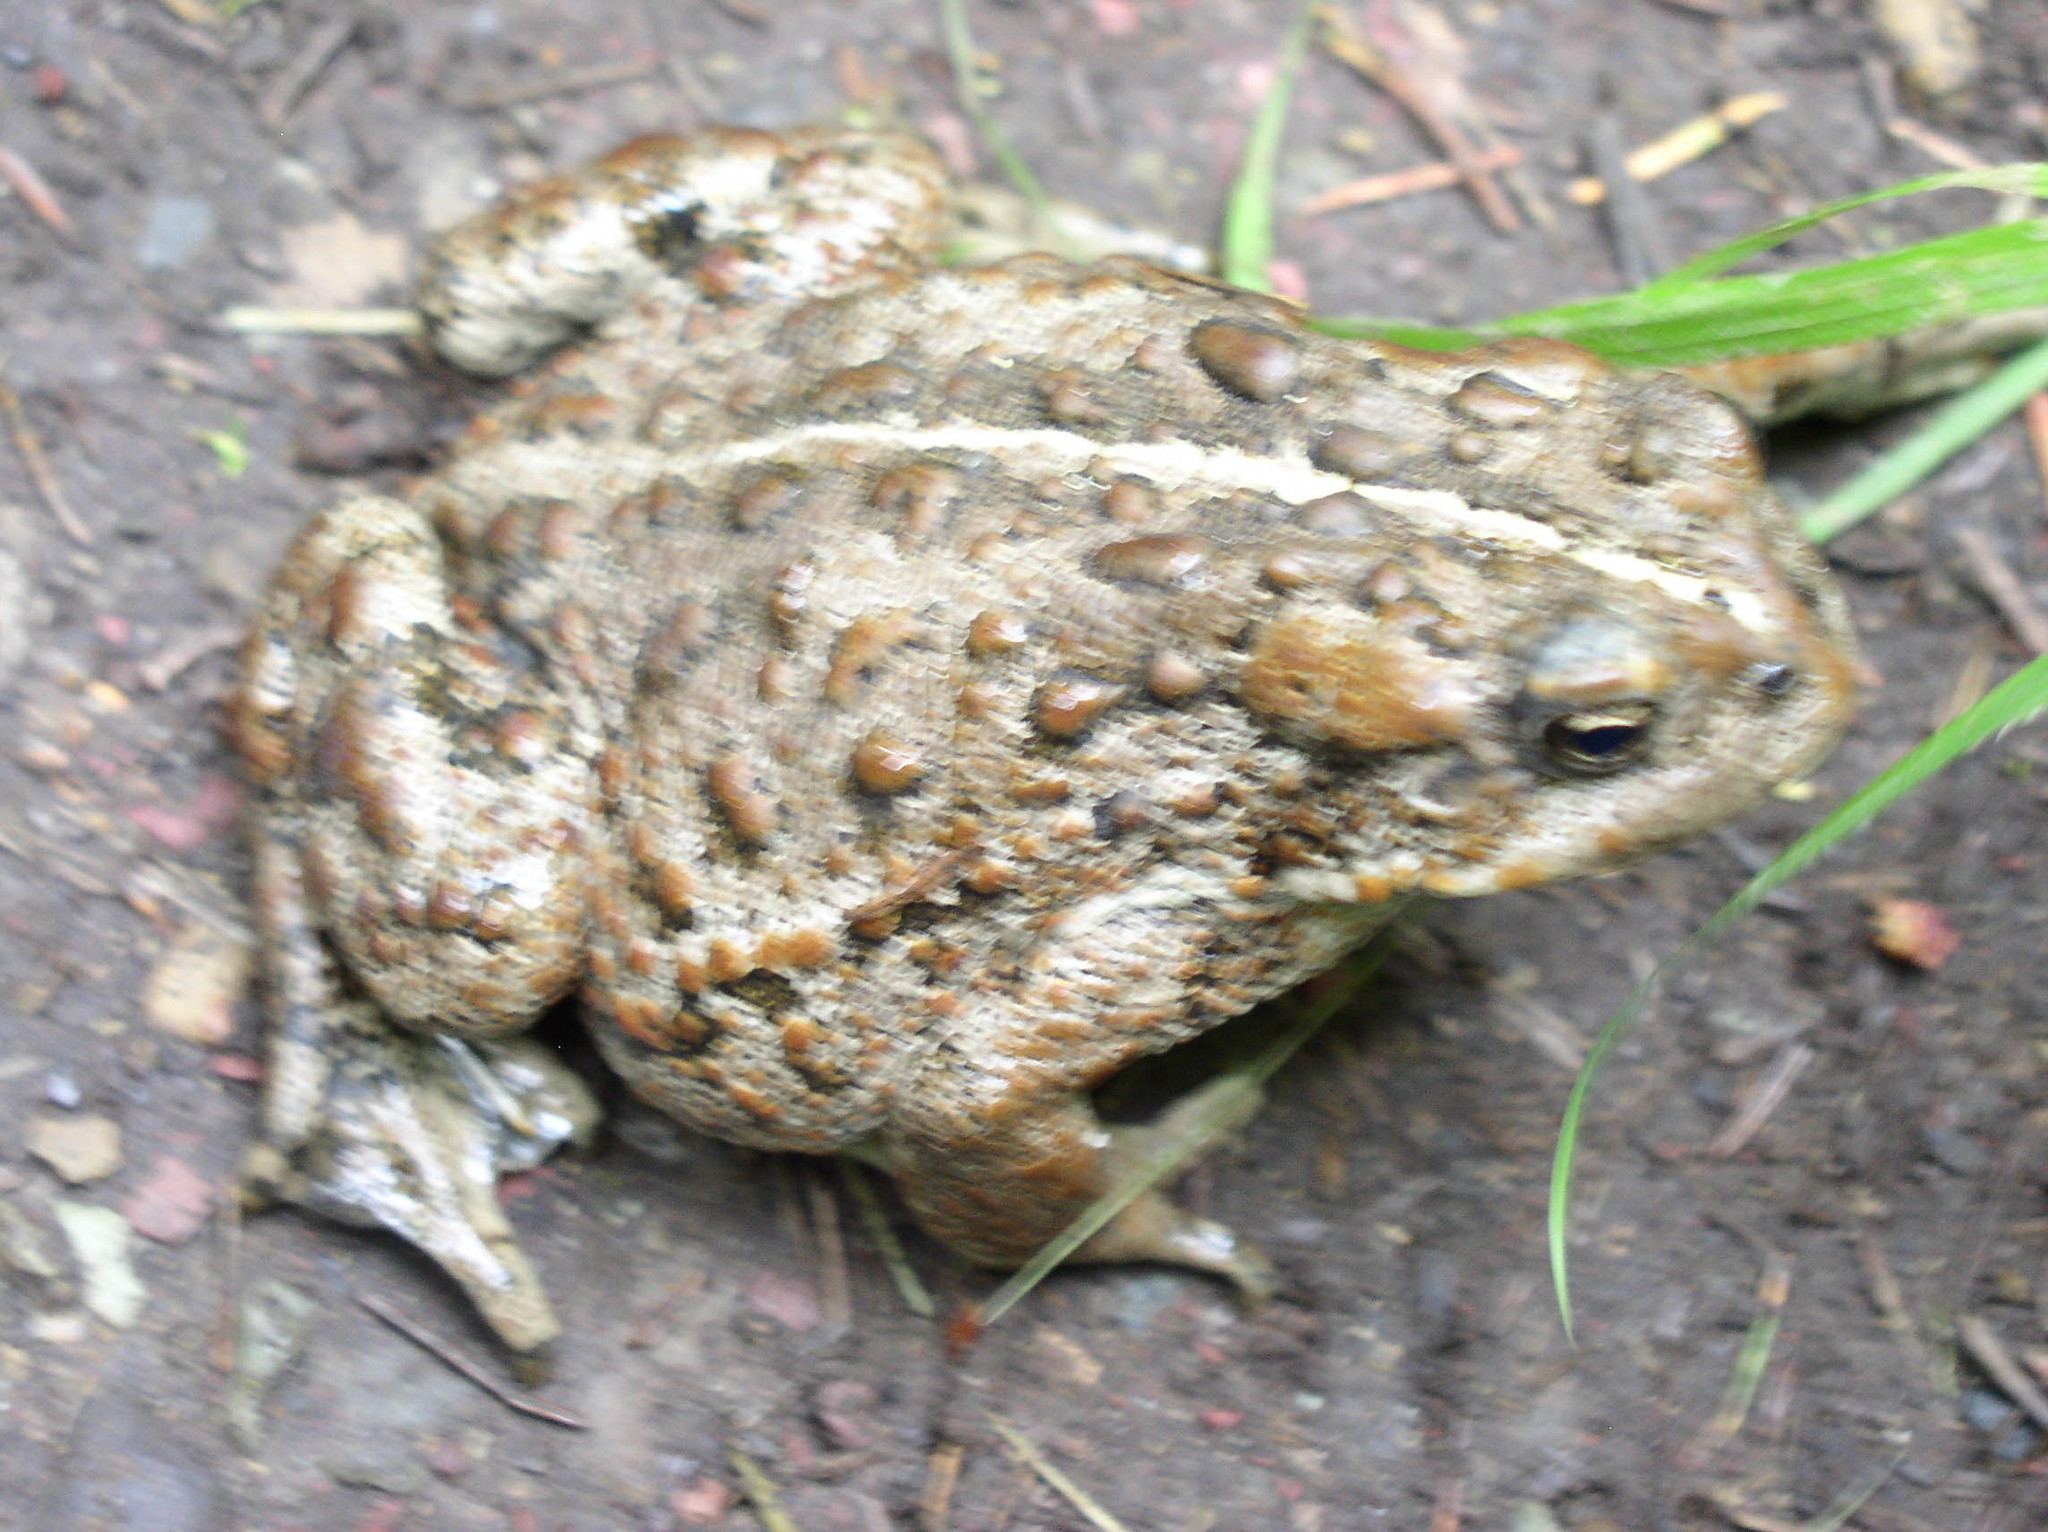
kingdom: Animalia
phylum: Chordata
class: Amphibia
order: Anura
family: Bufonidae
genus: Anaxyrus
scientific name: Anaxyrus boreas
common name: Western toad
